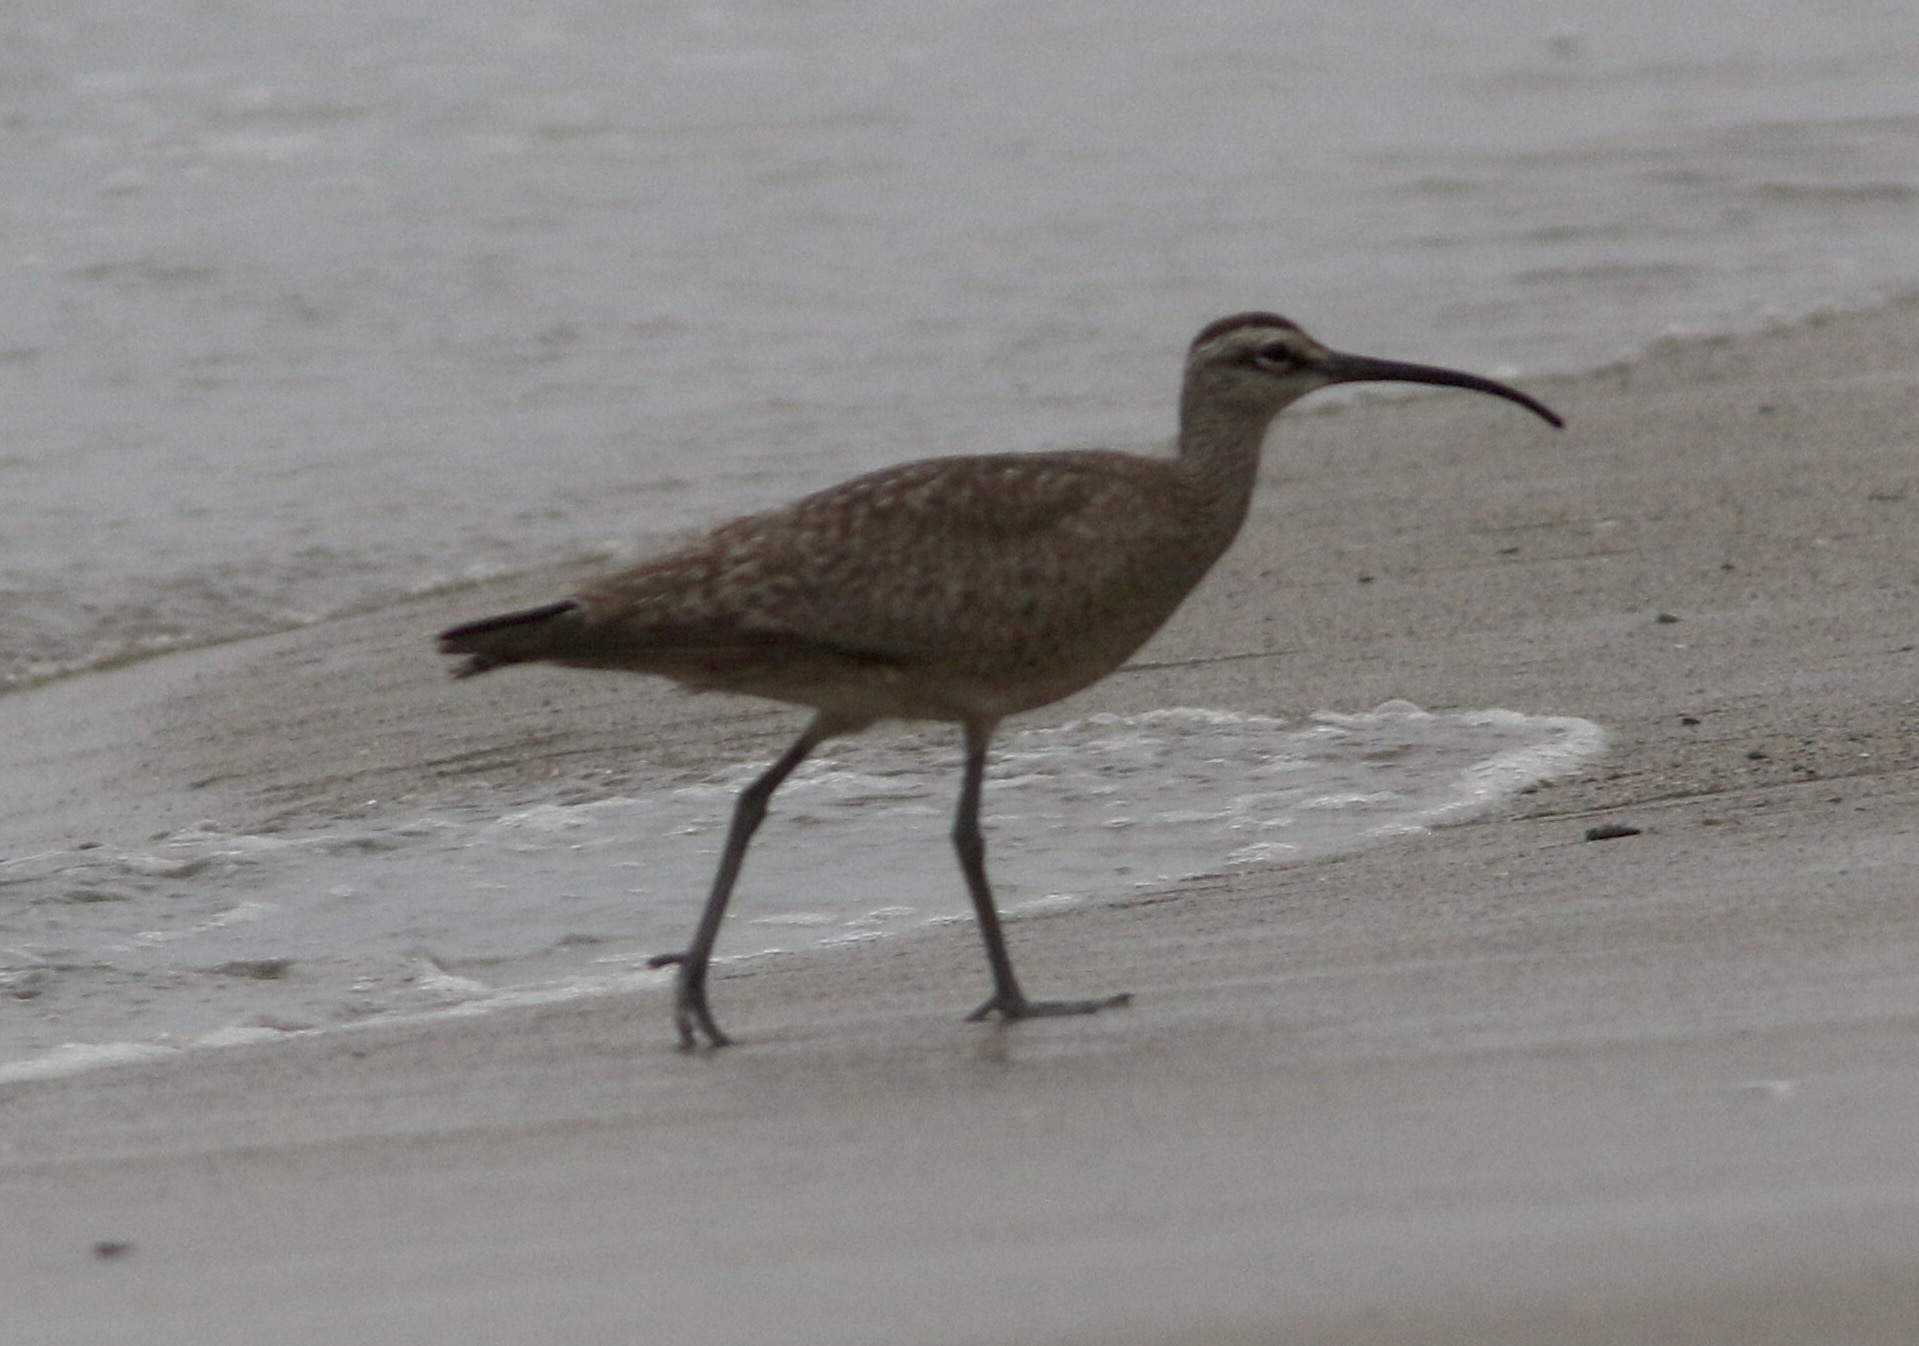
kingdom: Animalia
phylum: Chordata
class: Aves
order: Charadriiformes
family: Scolopacidae
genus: Numenius
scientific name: Numenius phaeopus
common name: Whimbrel
